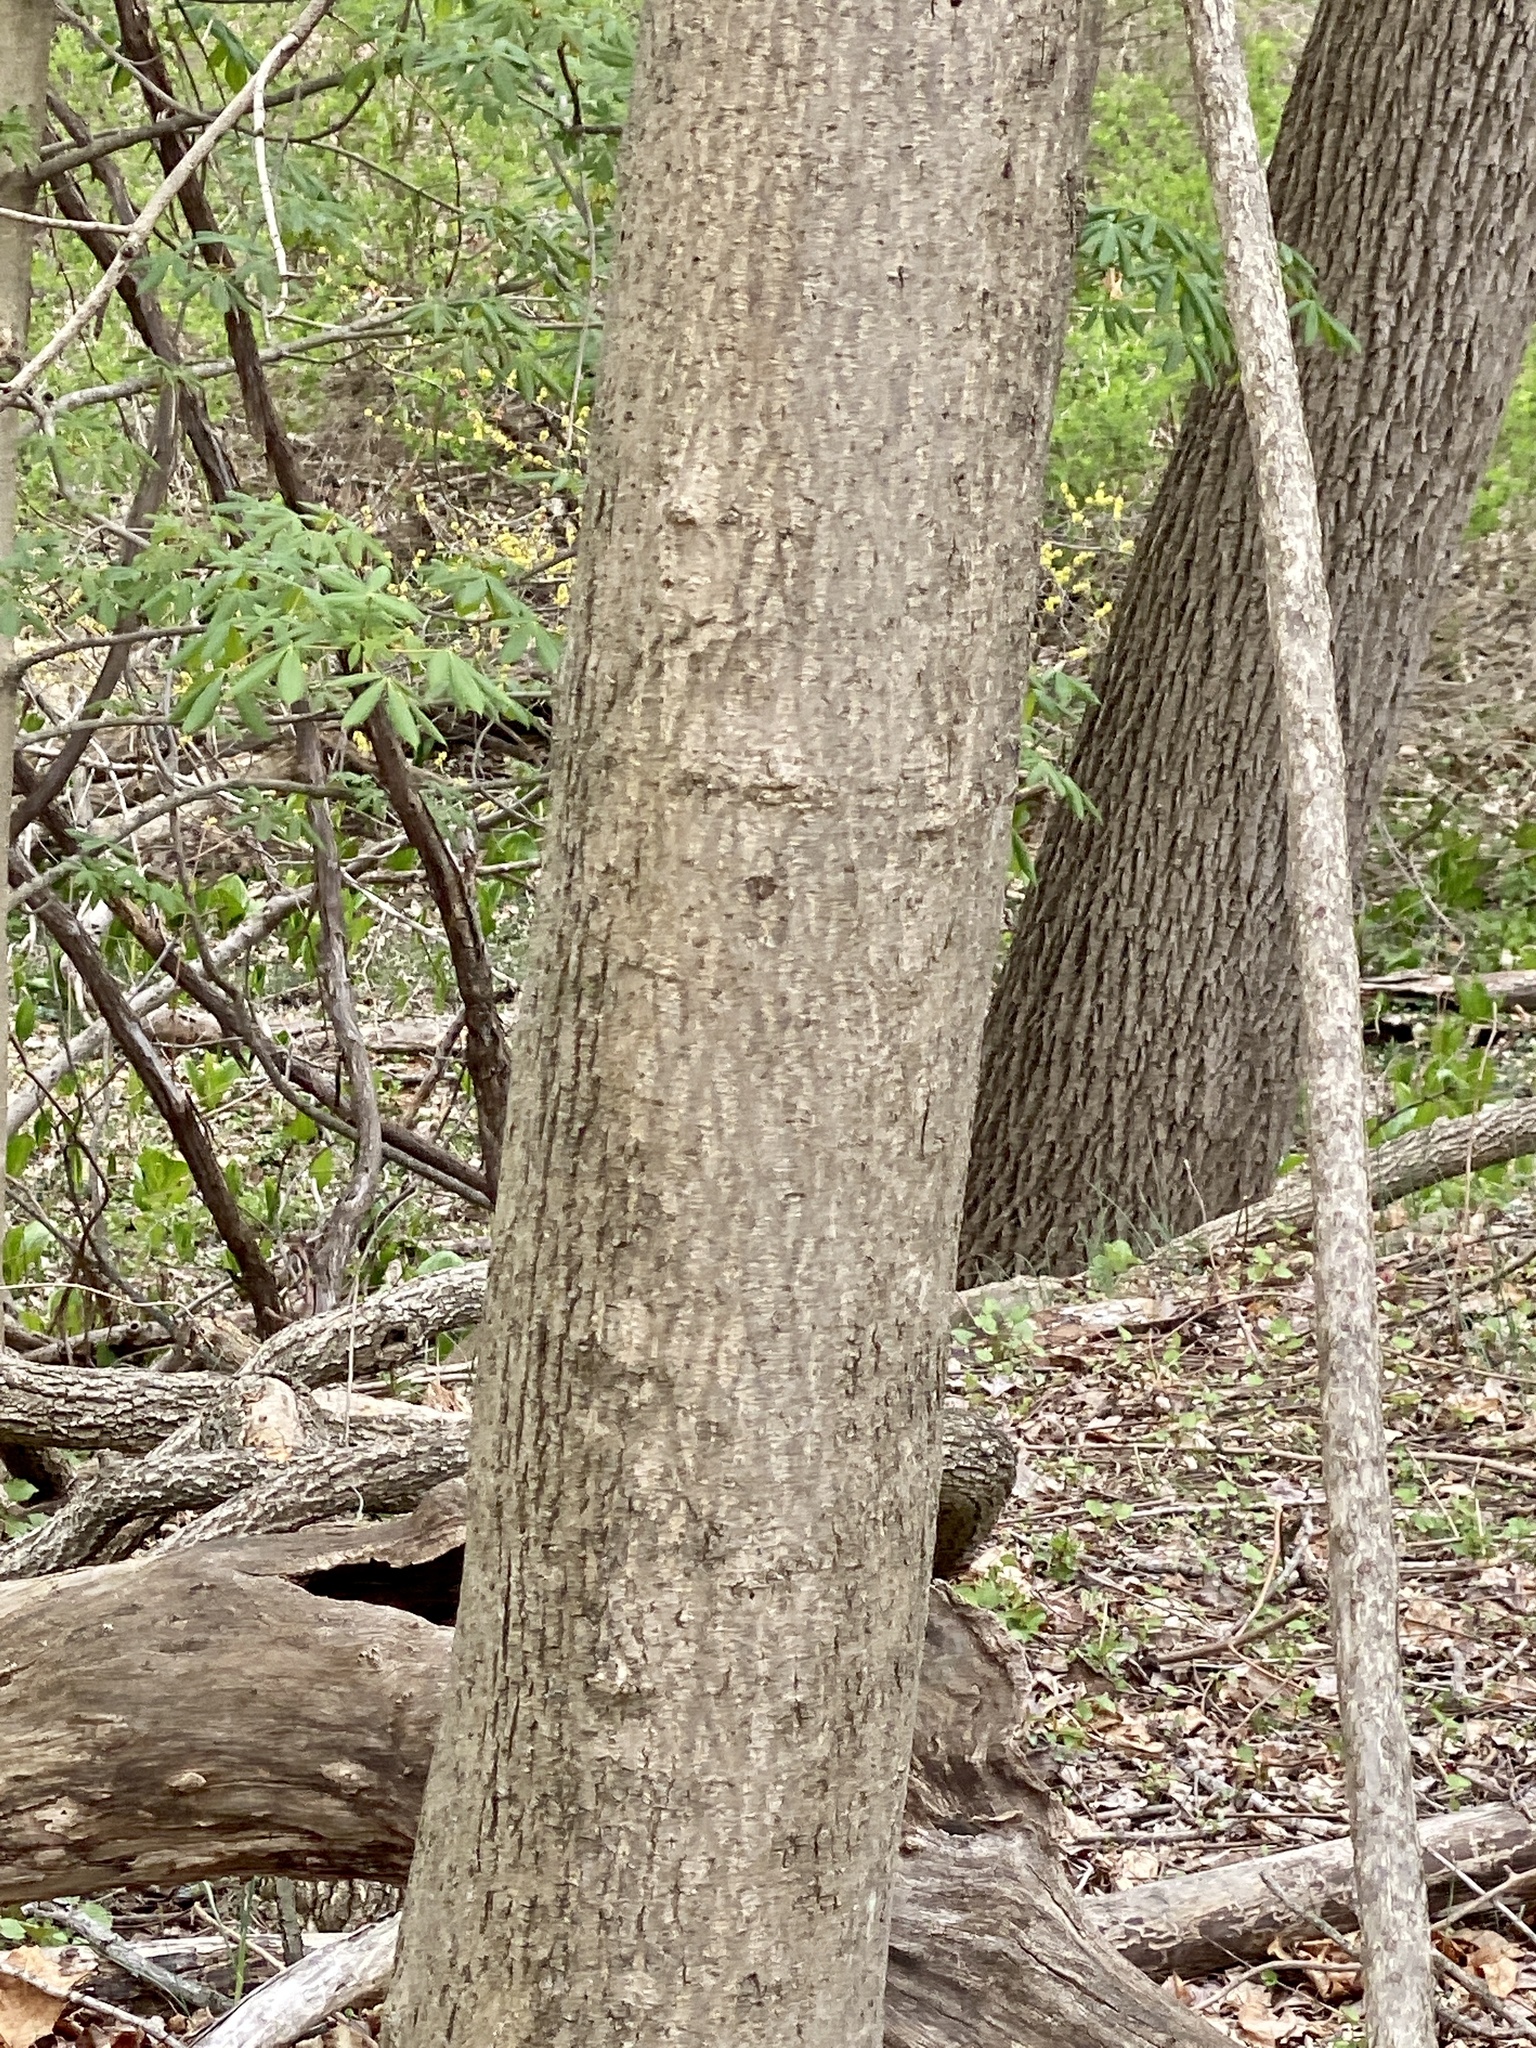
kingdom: Plantae
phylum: Tracheophyta
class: Magnoliopsida
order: Sapindales
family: Sapindaceae
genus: Acer
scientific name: Acer platanoides
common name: Norway maple
